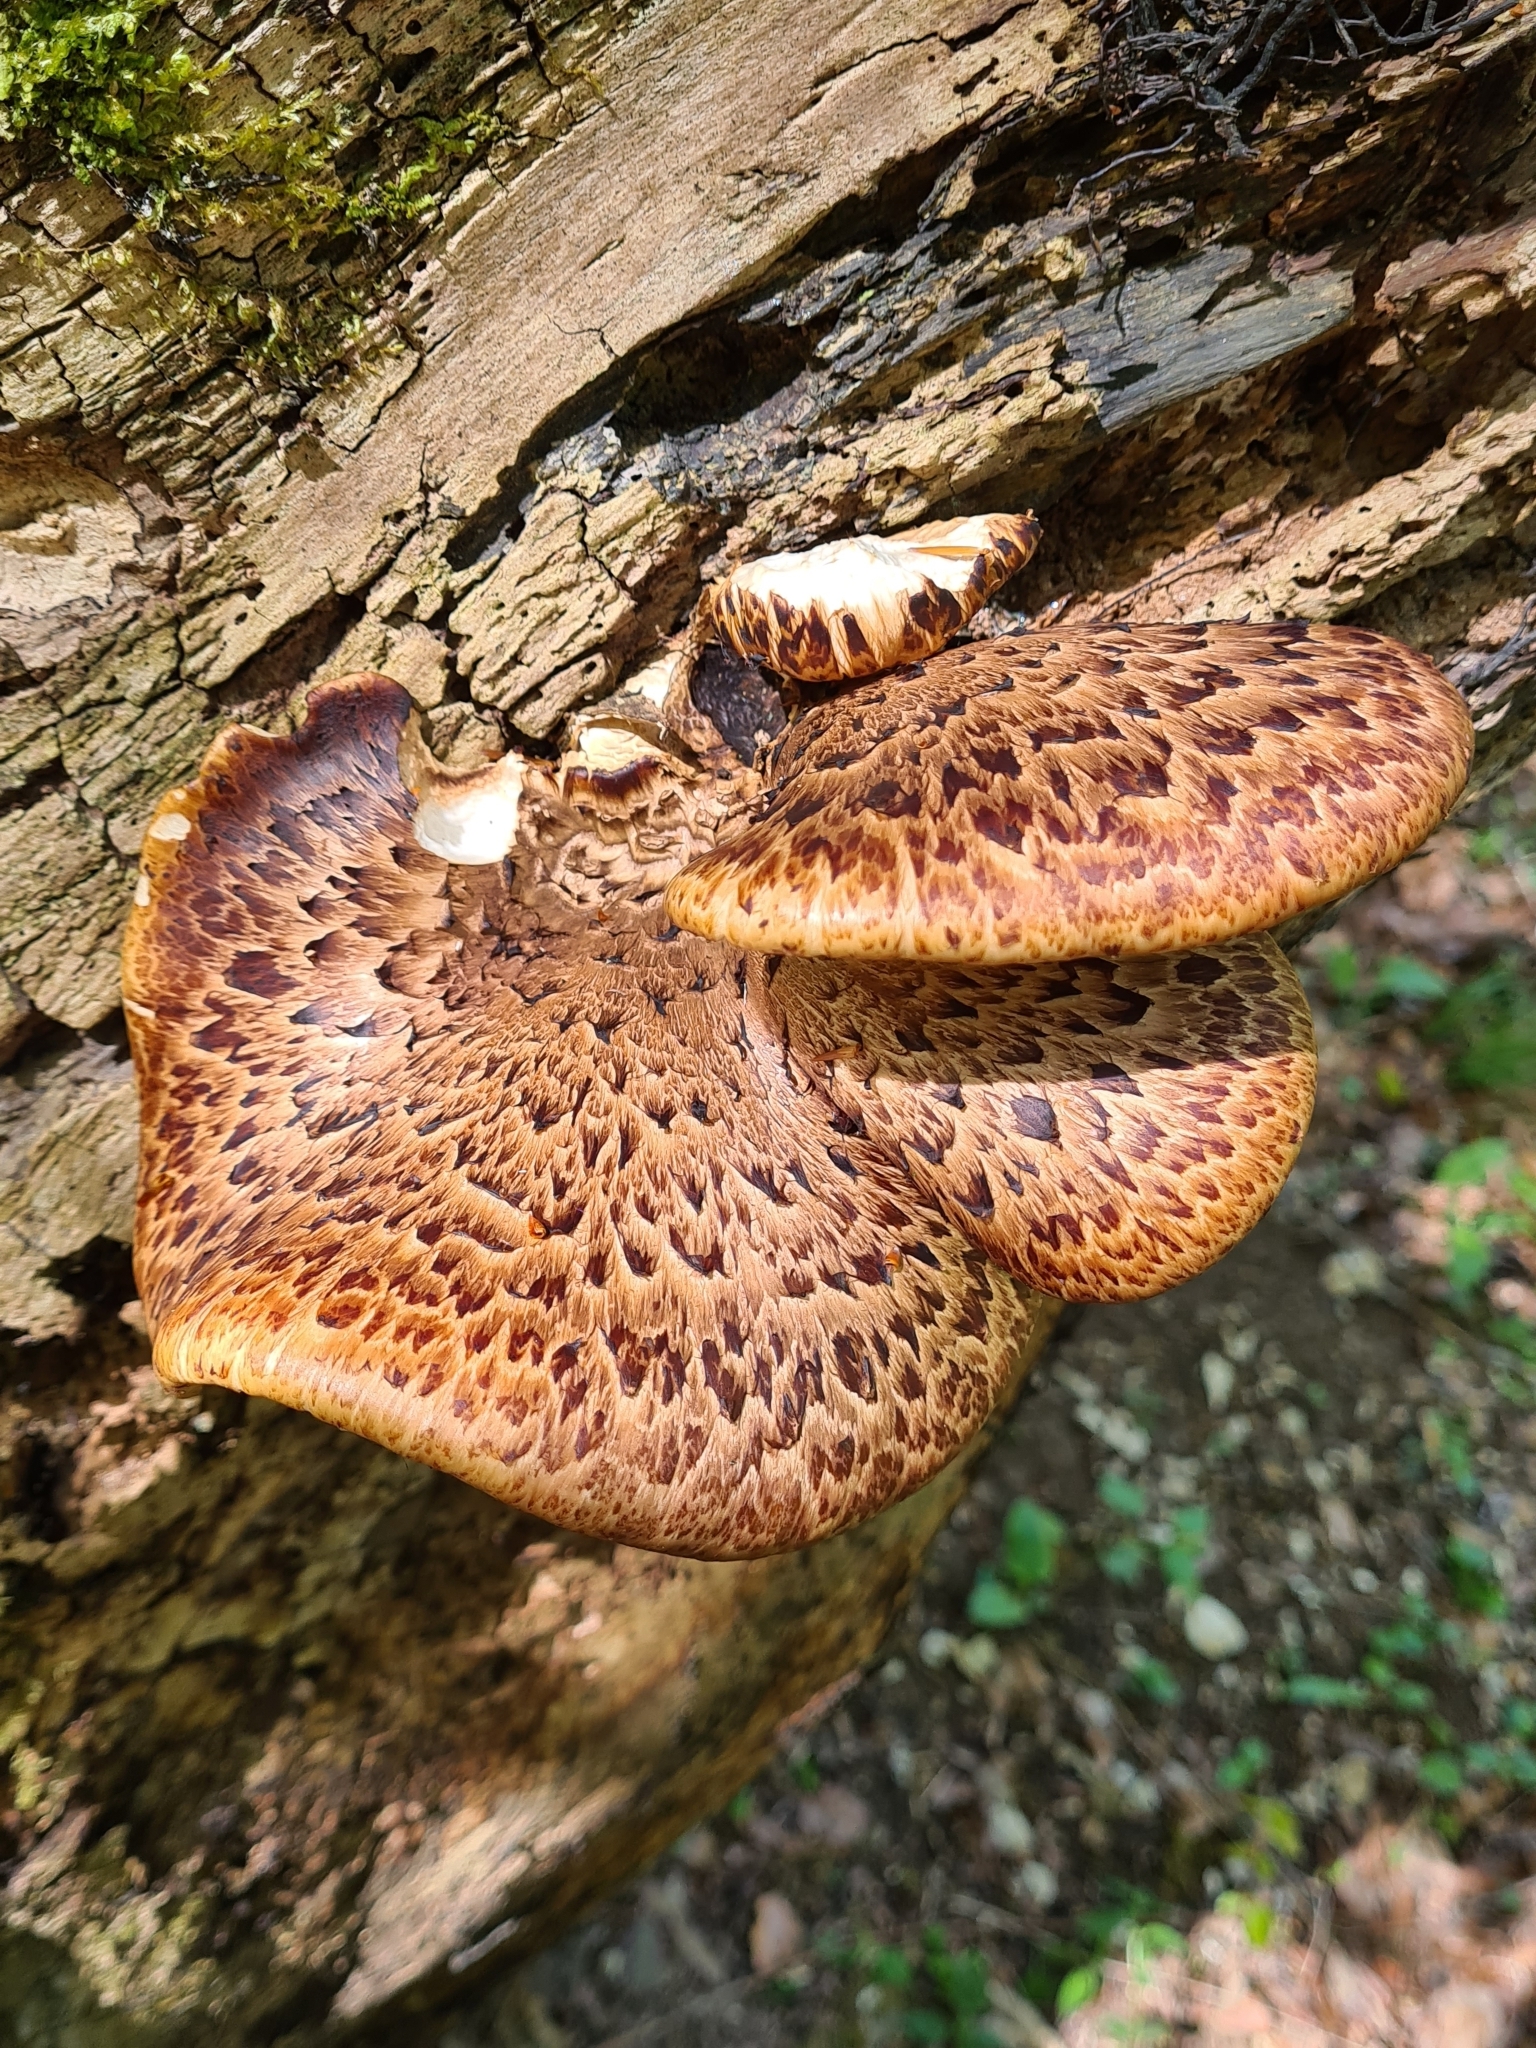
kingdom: Fungi
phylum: Basidiomycota
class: Agaricomycetes
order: Polyporales
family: Polyporaceae
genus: Cerioporus
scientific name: Cerioporus squamosus
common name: Dryad's saddle
